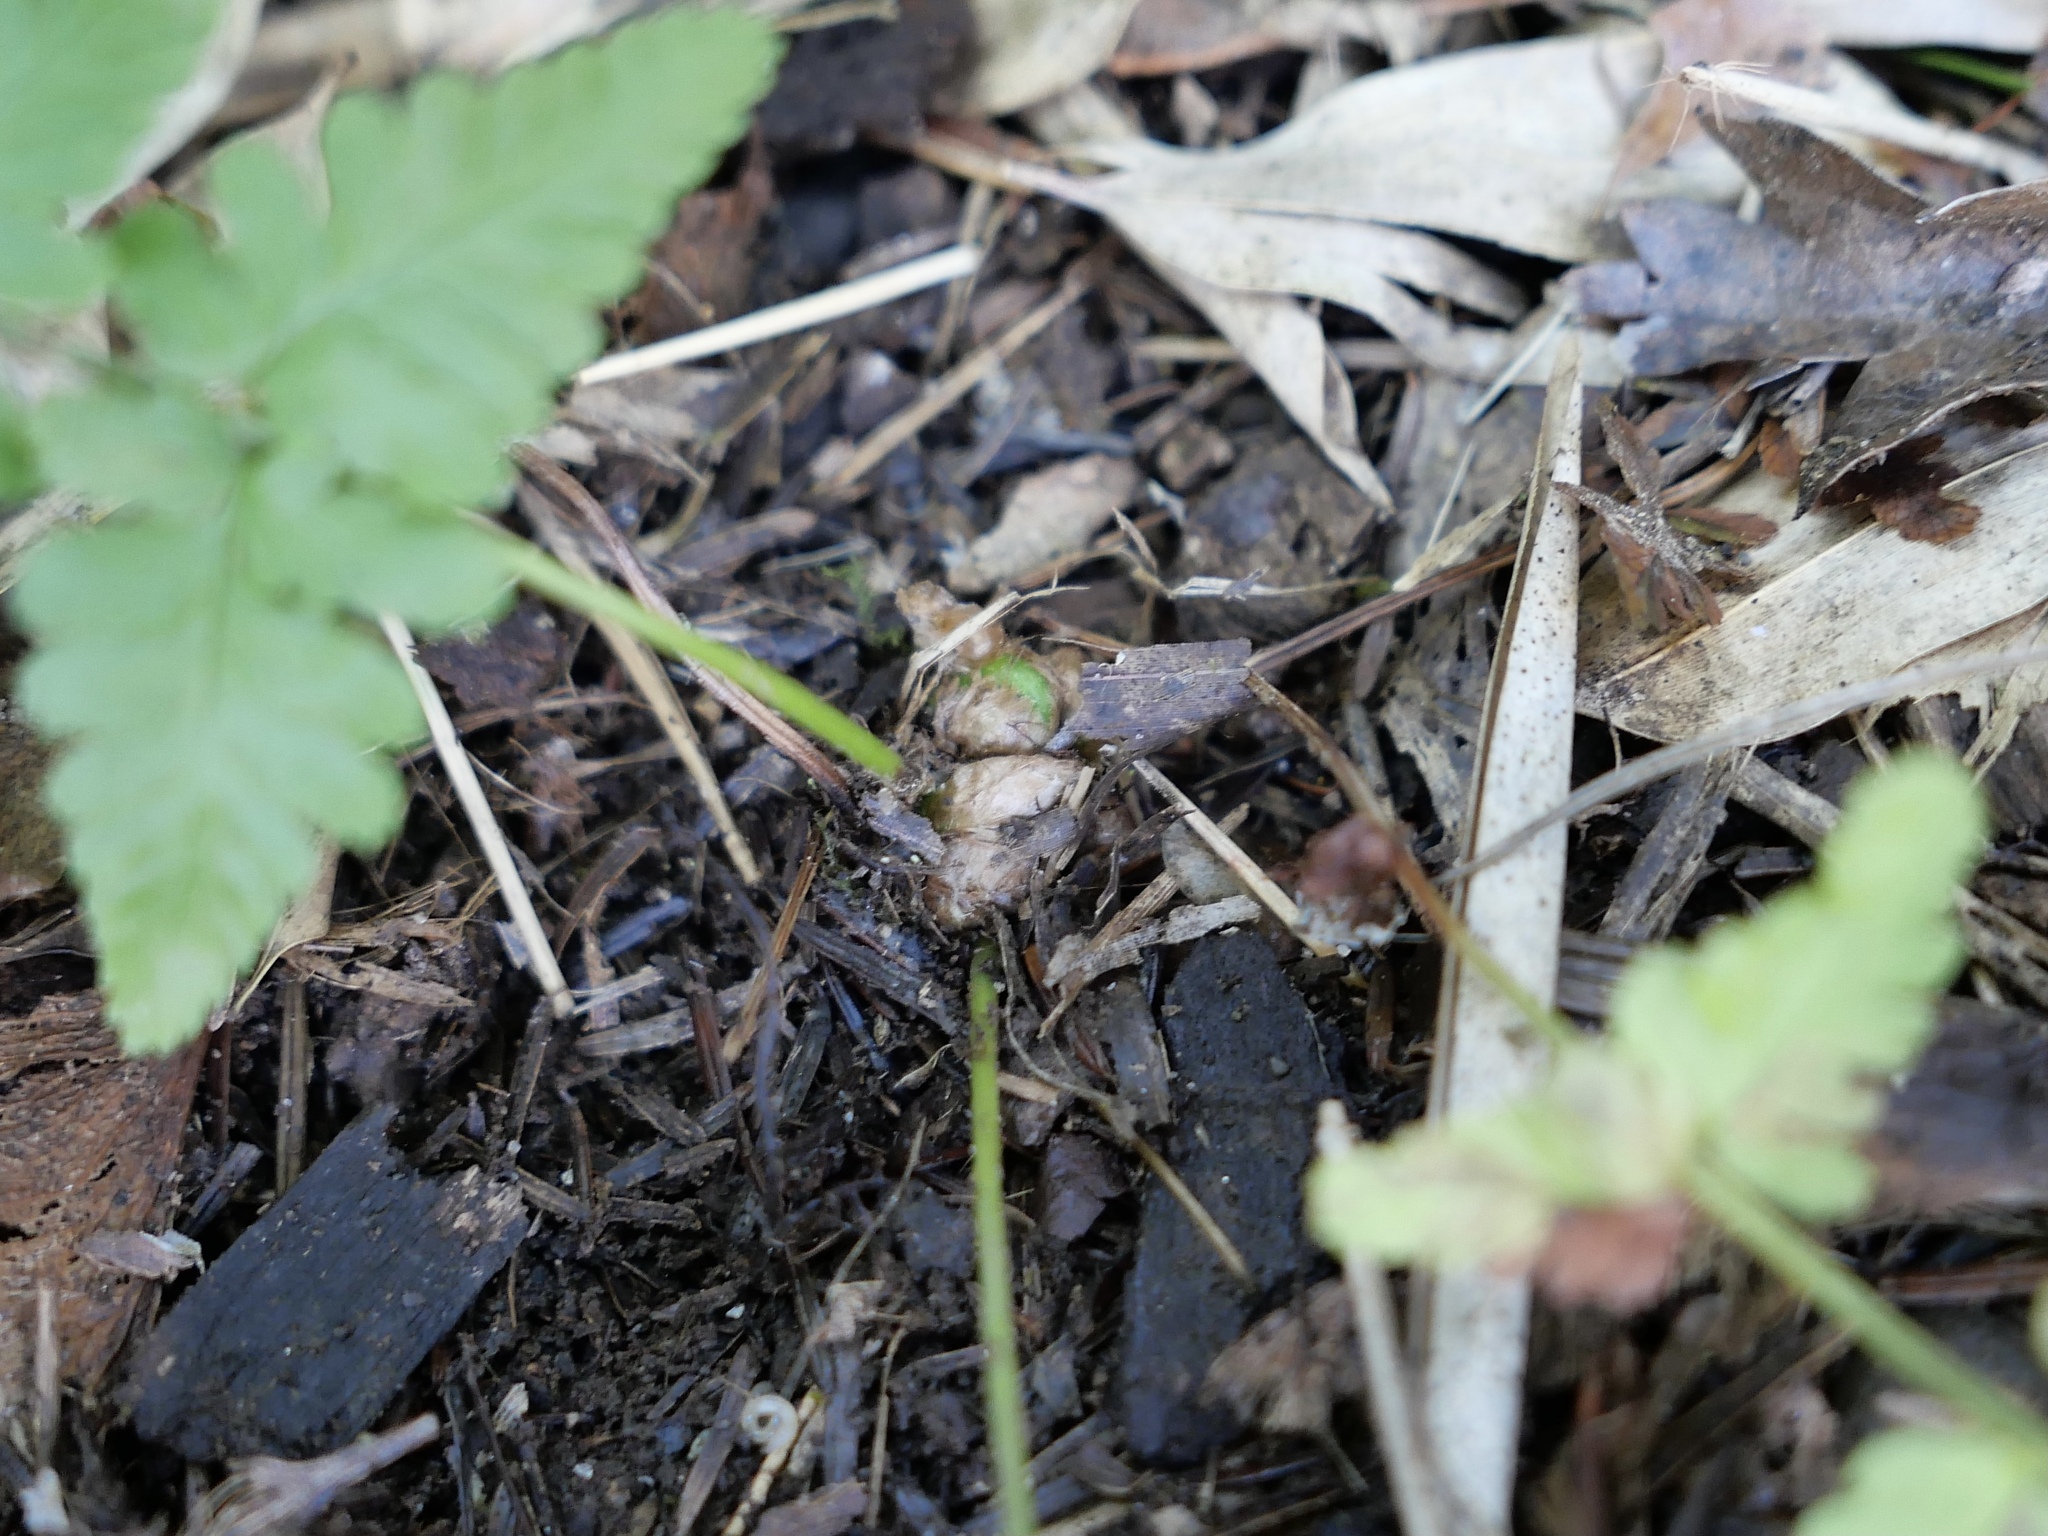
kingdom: Plantae
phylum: Tracheophyta
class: Polypodiopsida
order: Polypodiales
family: Dryopteridaceae
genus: Dryopteris
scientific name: Dryopteris filix-mas
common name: Male fern
